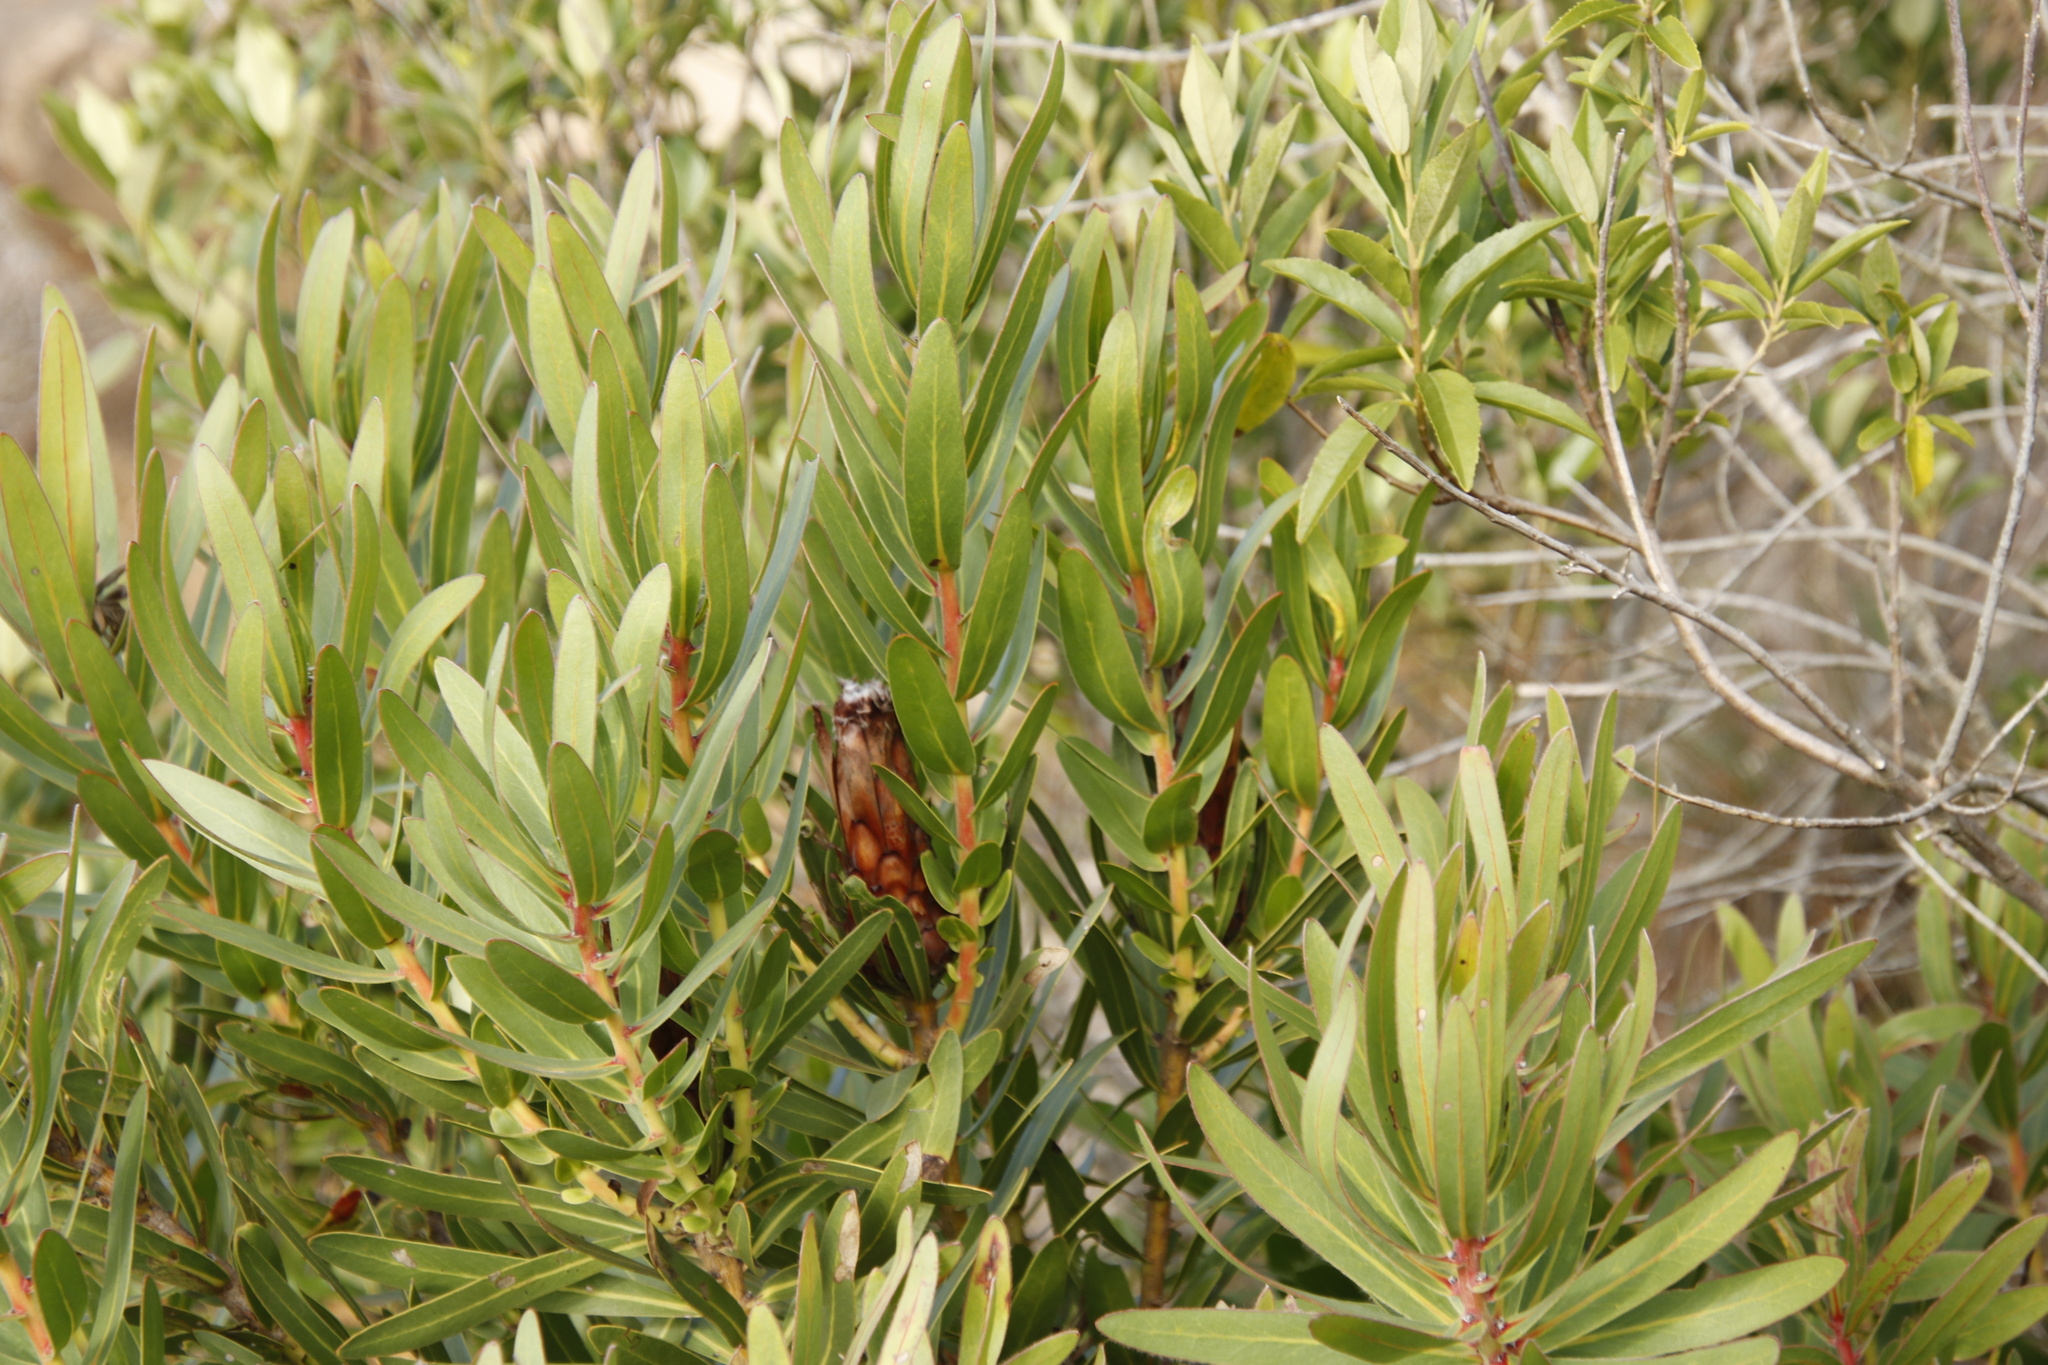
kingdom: Plantae
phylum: Tracheophyta
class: Magnoliopsida
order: Proteales
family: Proteaceae
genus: Protea
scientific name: Protea lepidocarpodendron
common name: Black-bearded protea
